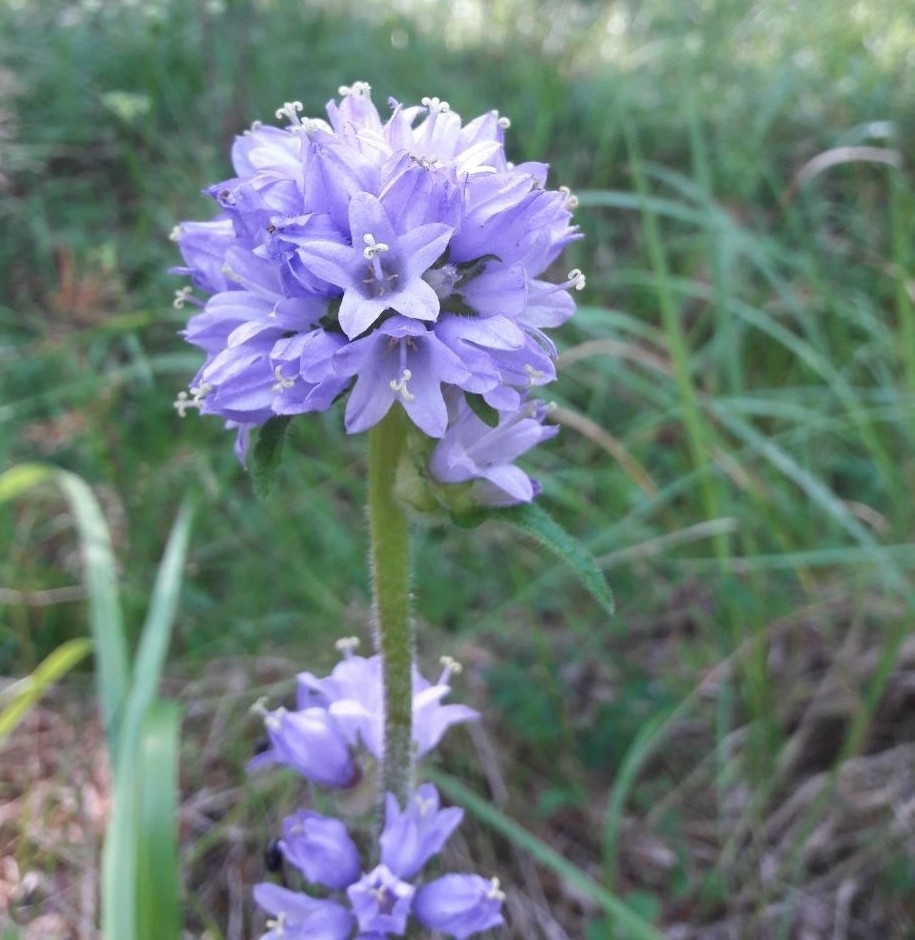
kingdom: Plantae
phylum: Tracheophyta
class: Magnoliopsida
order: Asterales
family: Campanulaceae
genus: Campanula
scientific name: Campanula cervicaria
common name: Bristly bellflower
